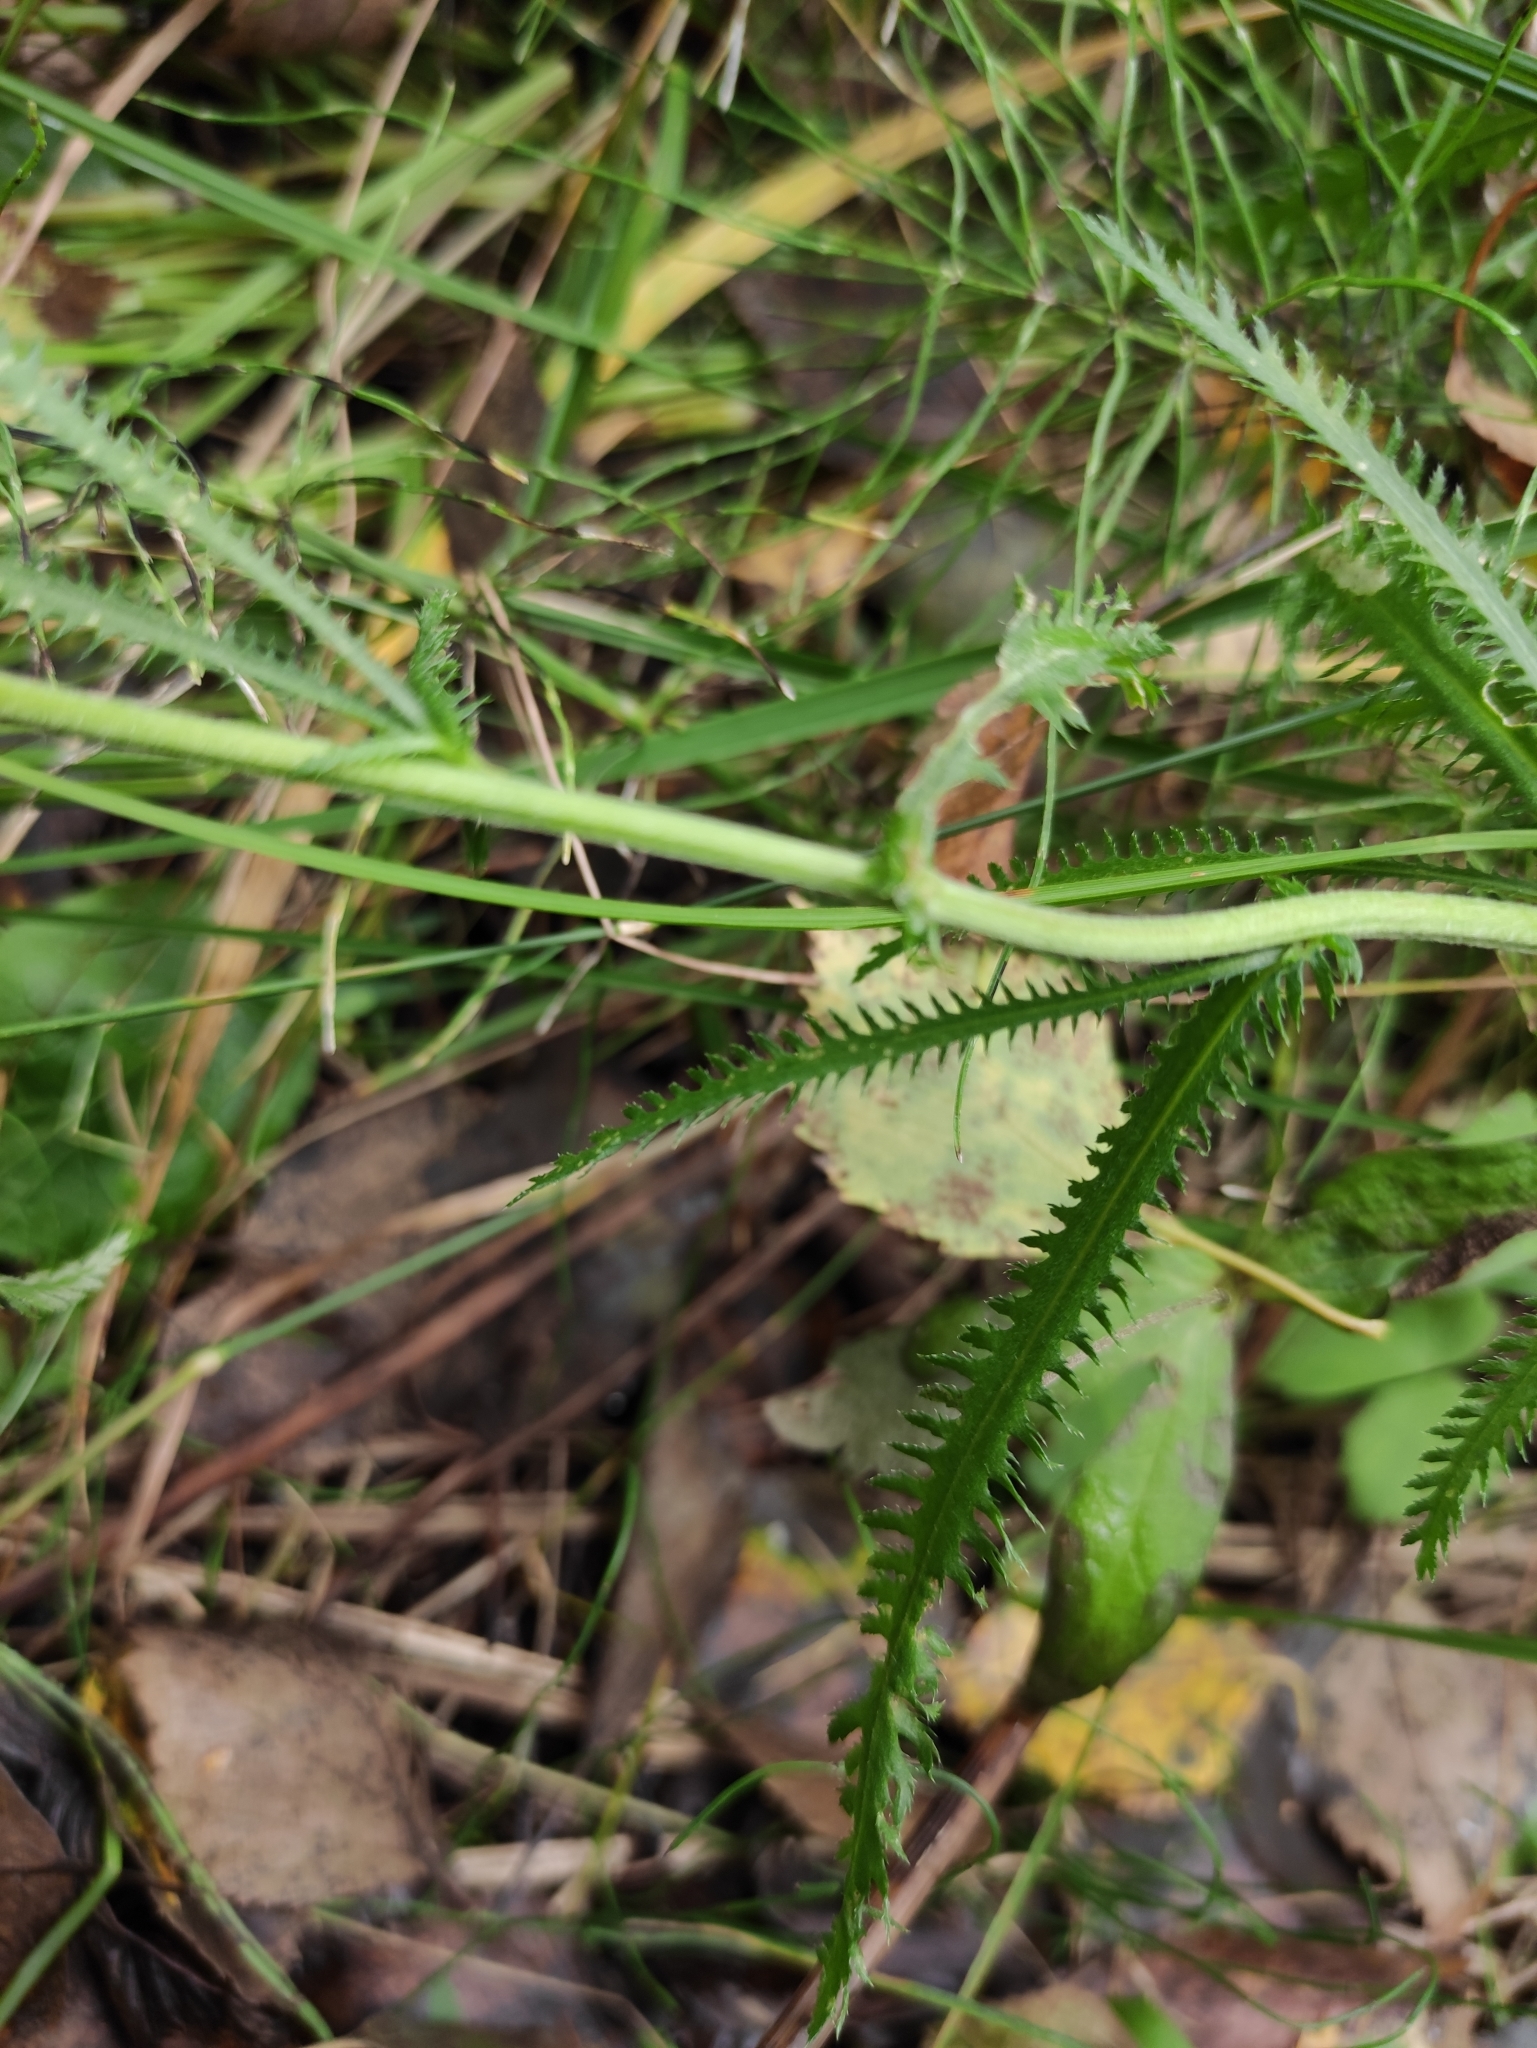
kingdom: Plantae
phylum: Tracheophyta
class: Magnoliopsida
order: Asterales
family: Asteraceae
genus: Achillea
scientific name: Achillea alpina
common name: Siberian yarrow
